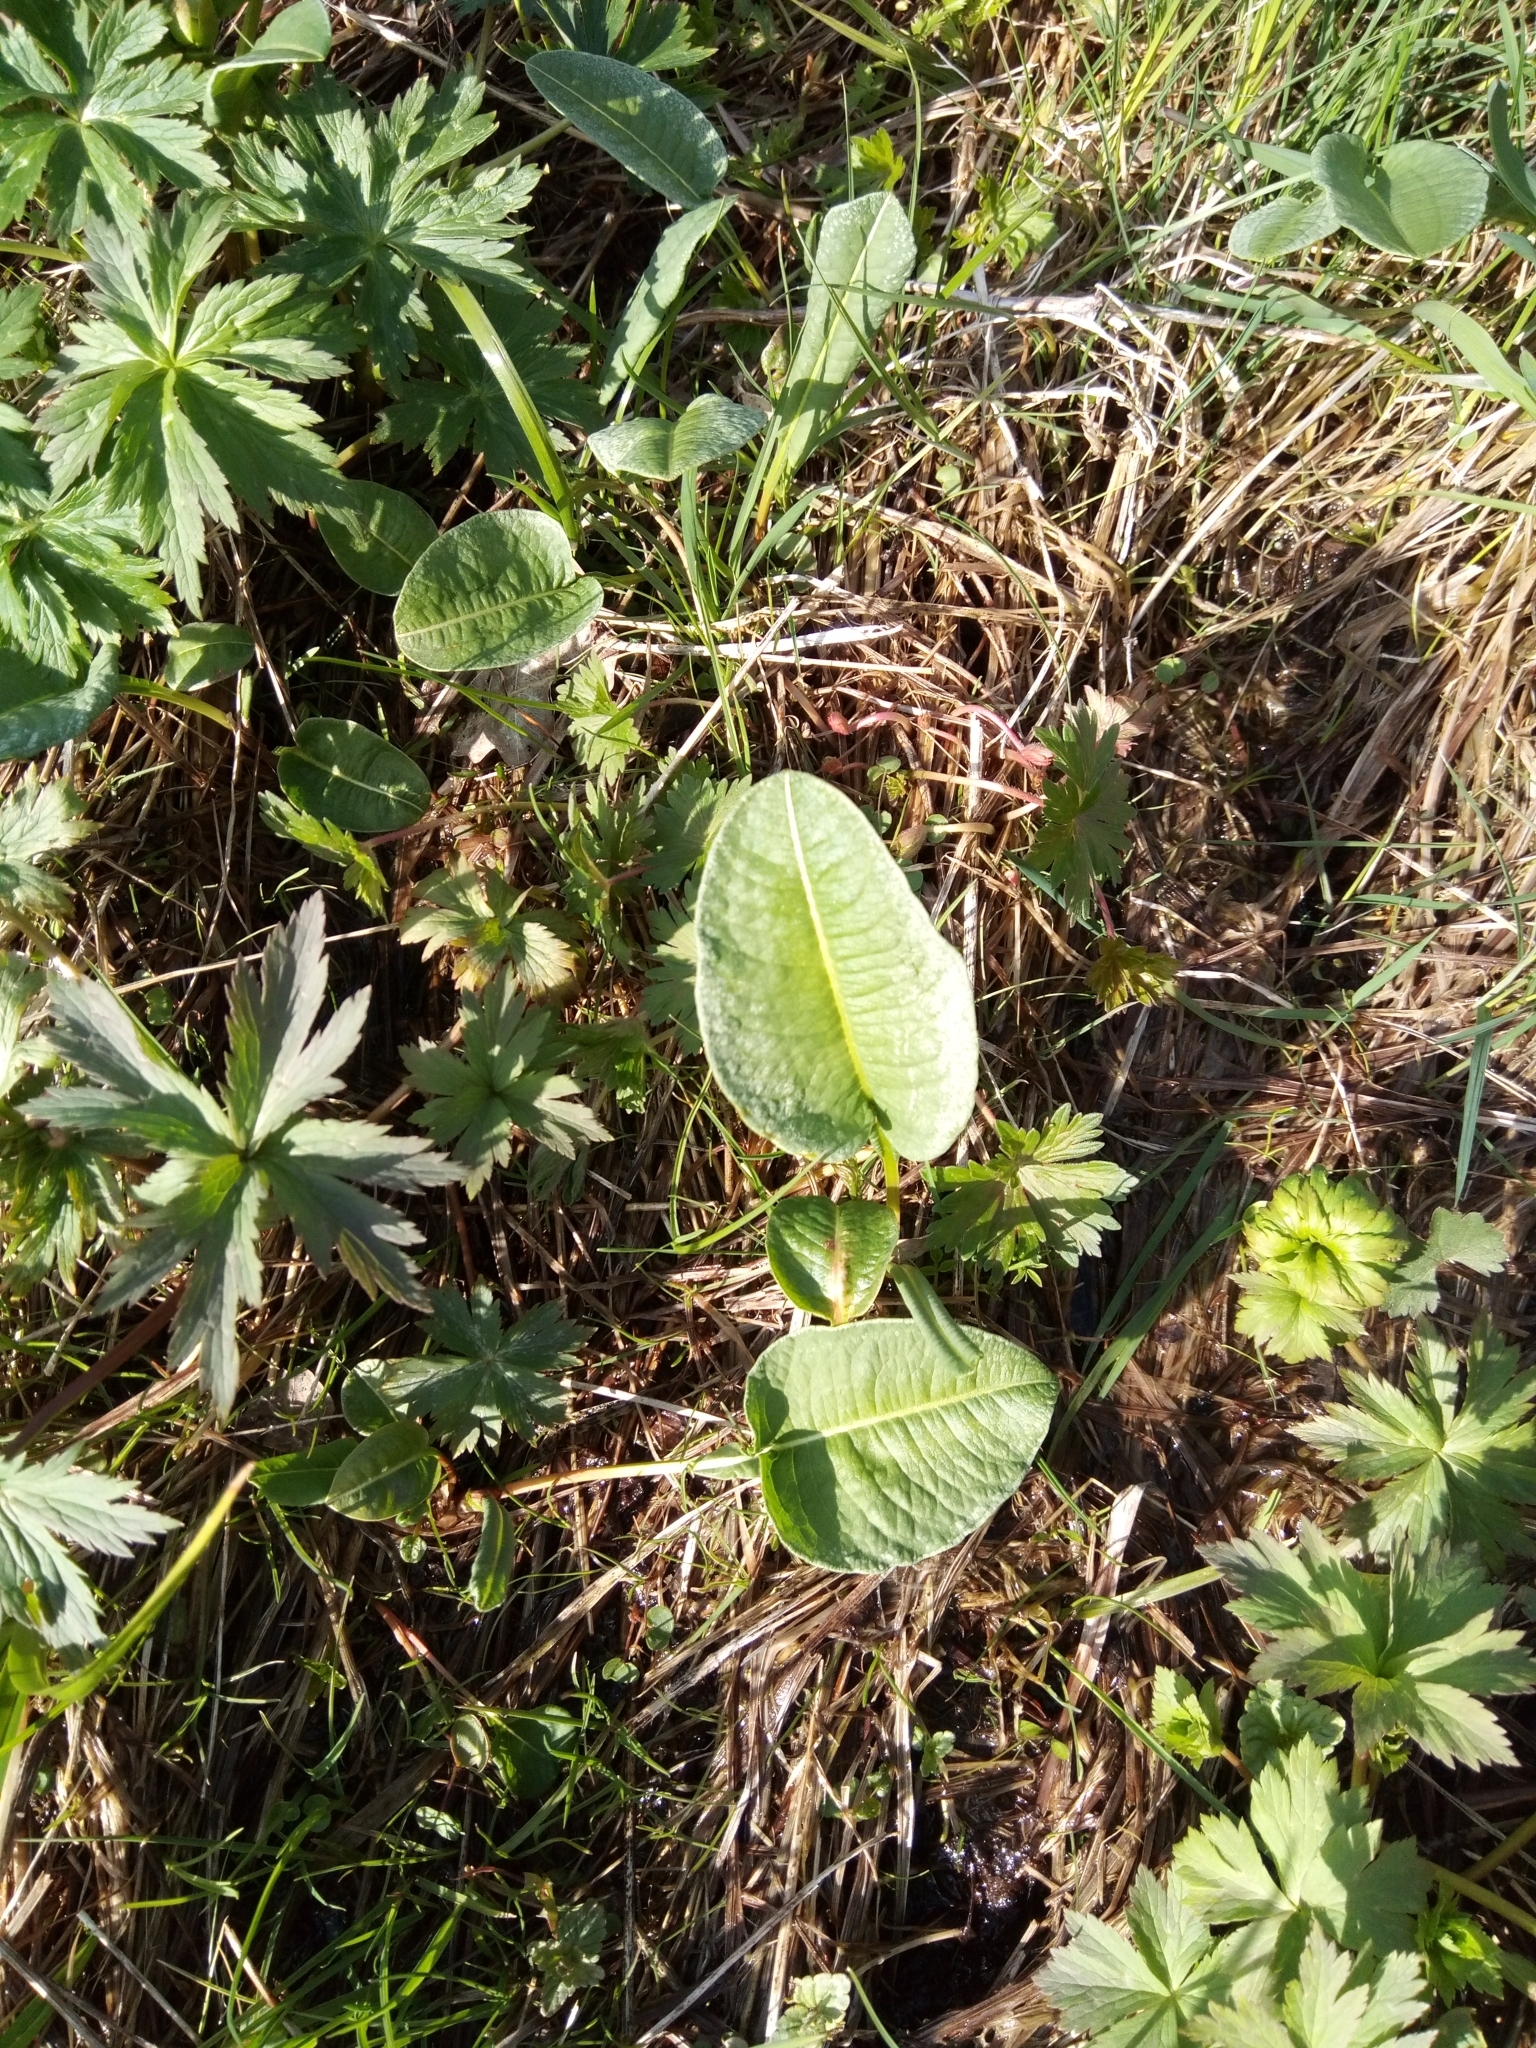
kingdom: Plantae
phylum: Tracheophyta
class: Magnoliopsida
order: Caryophyllales
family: Polygonaceae
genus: Bistorta
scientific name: Bistorta officinalis
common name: Common bistort
